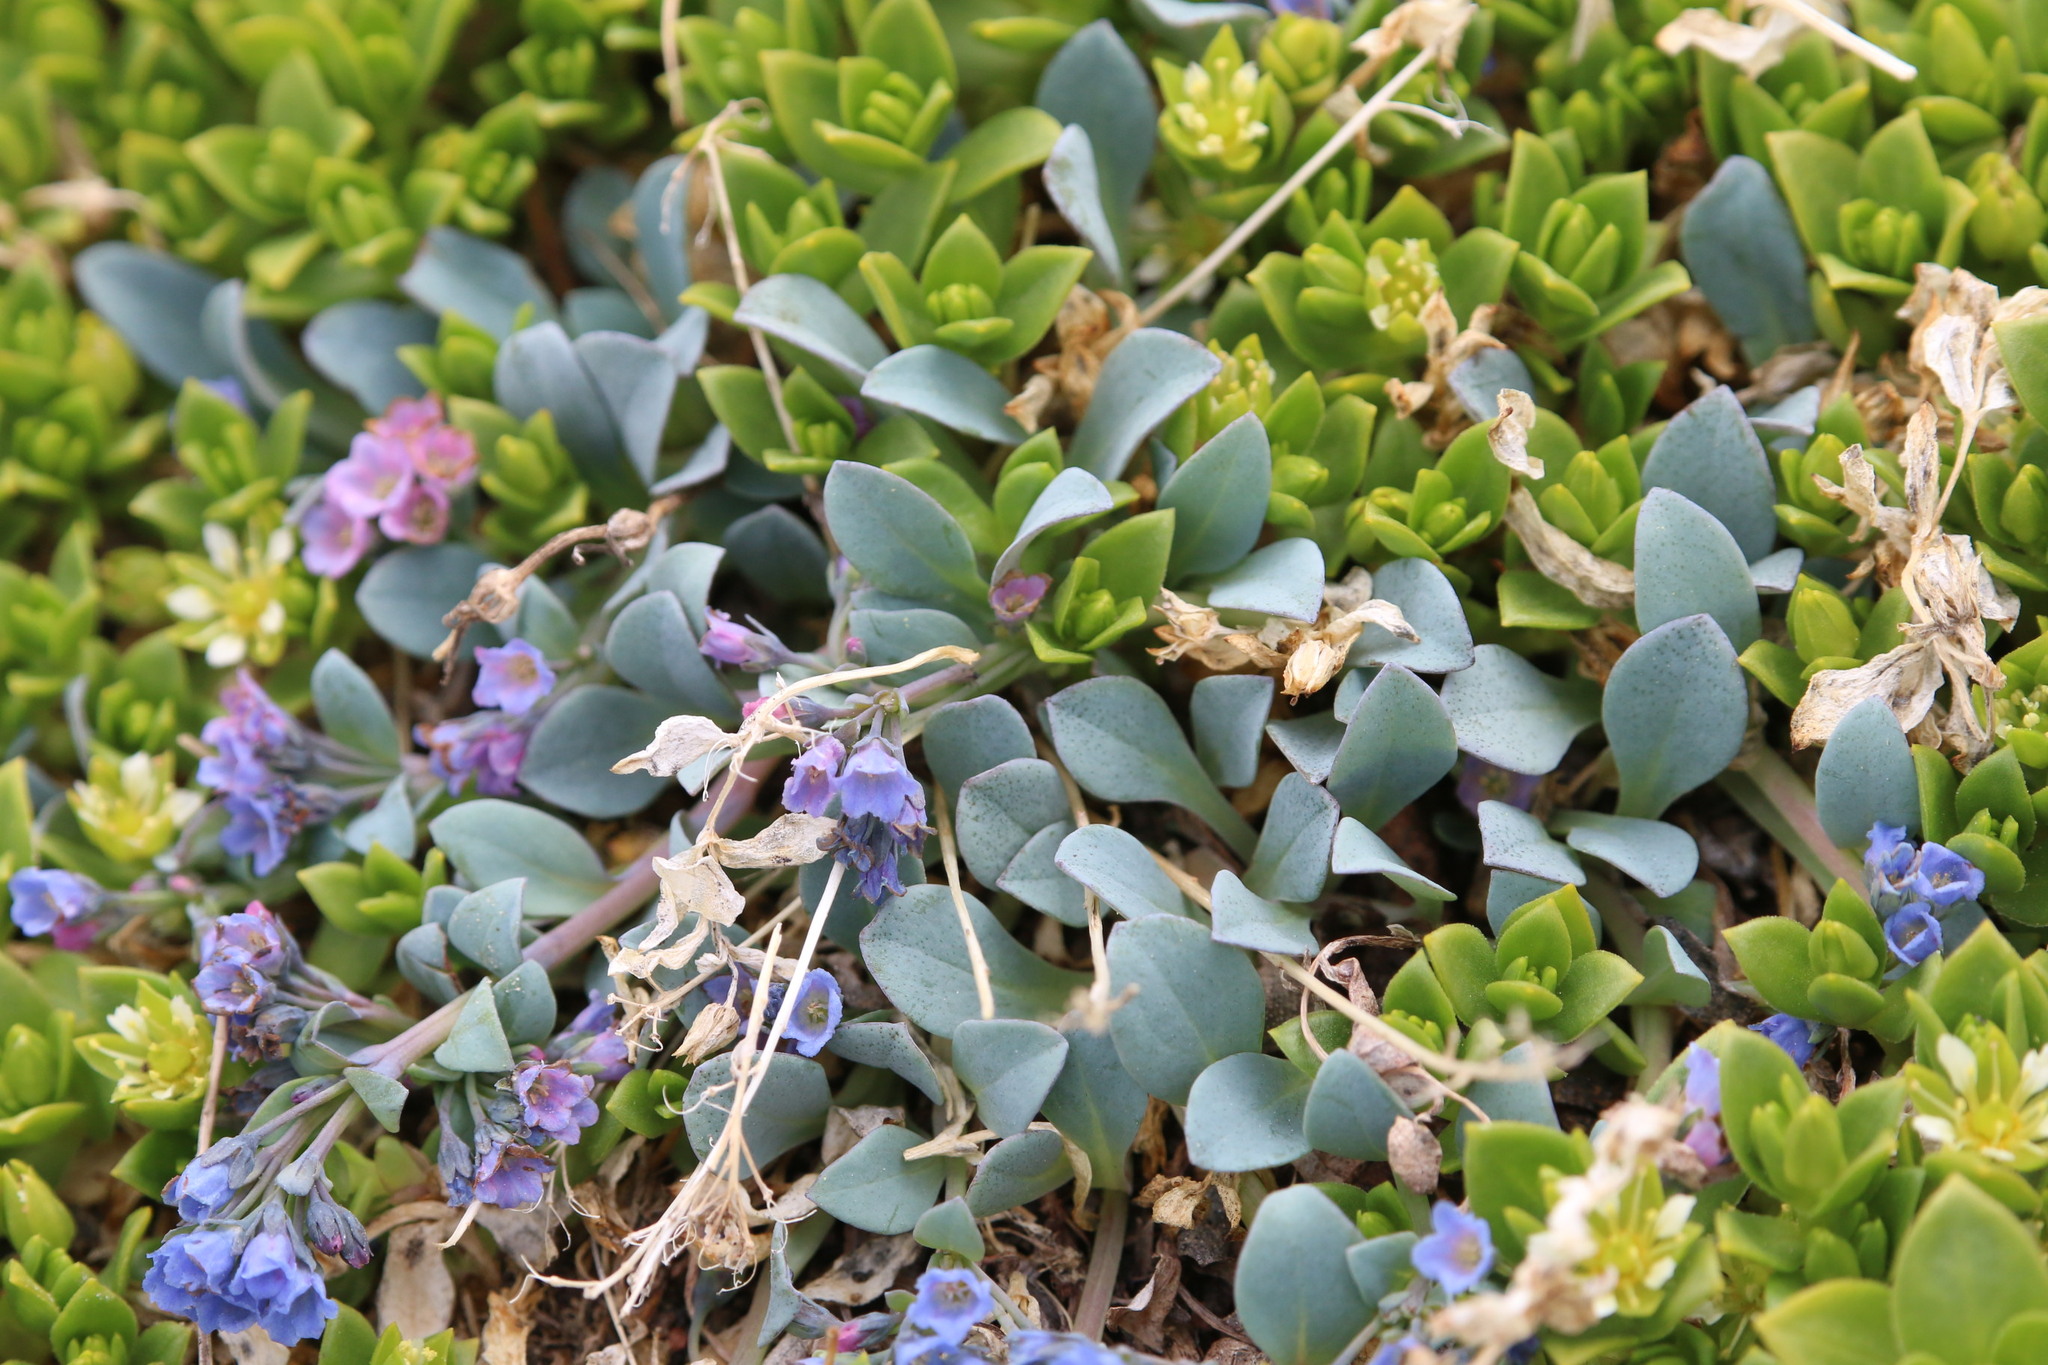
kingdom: Plantae
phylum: Tracheophyta
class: Magnoliopsida
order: Boraginales
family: Boraginaceae
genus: Mertensia
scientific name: Mertensia maritima
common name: Oysterplant
